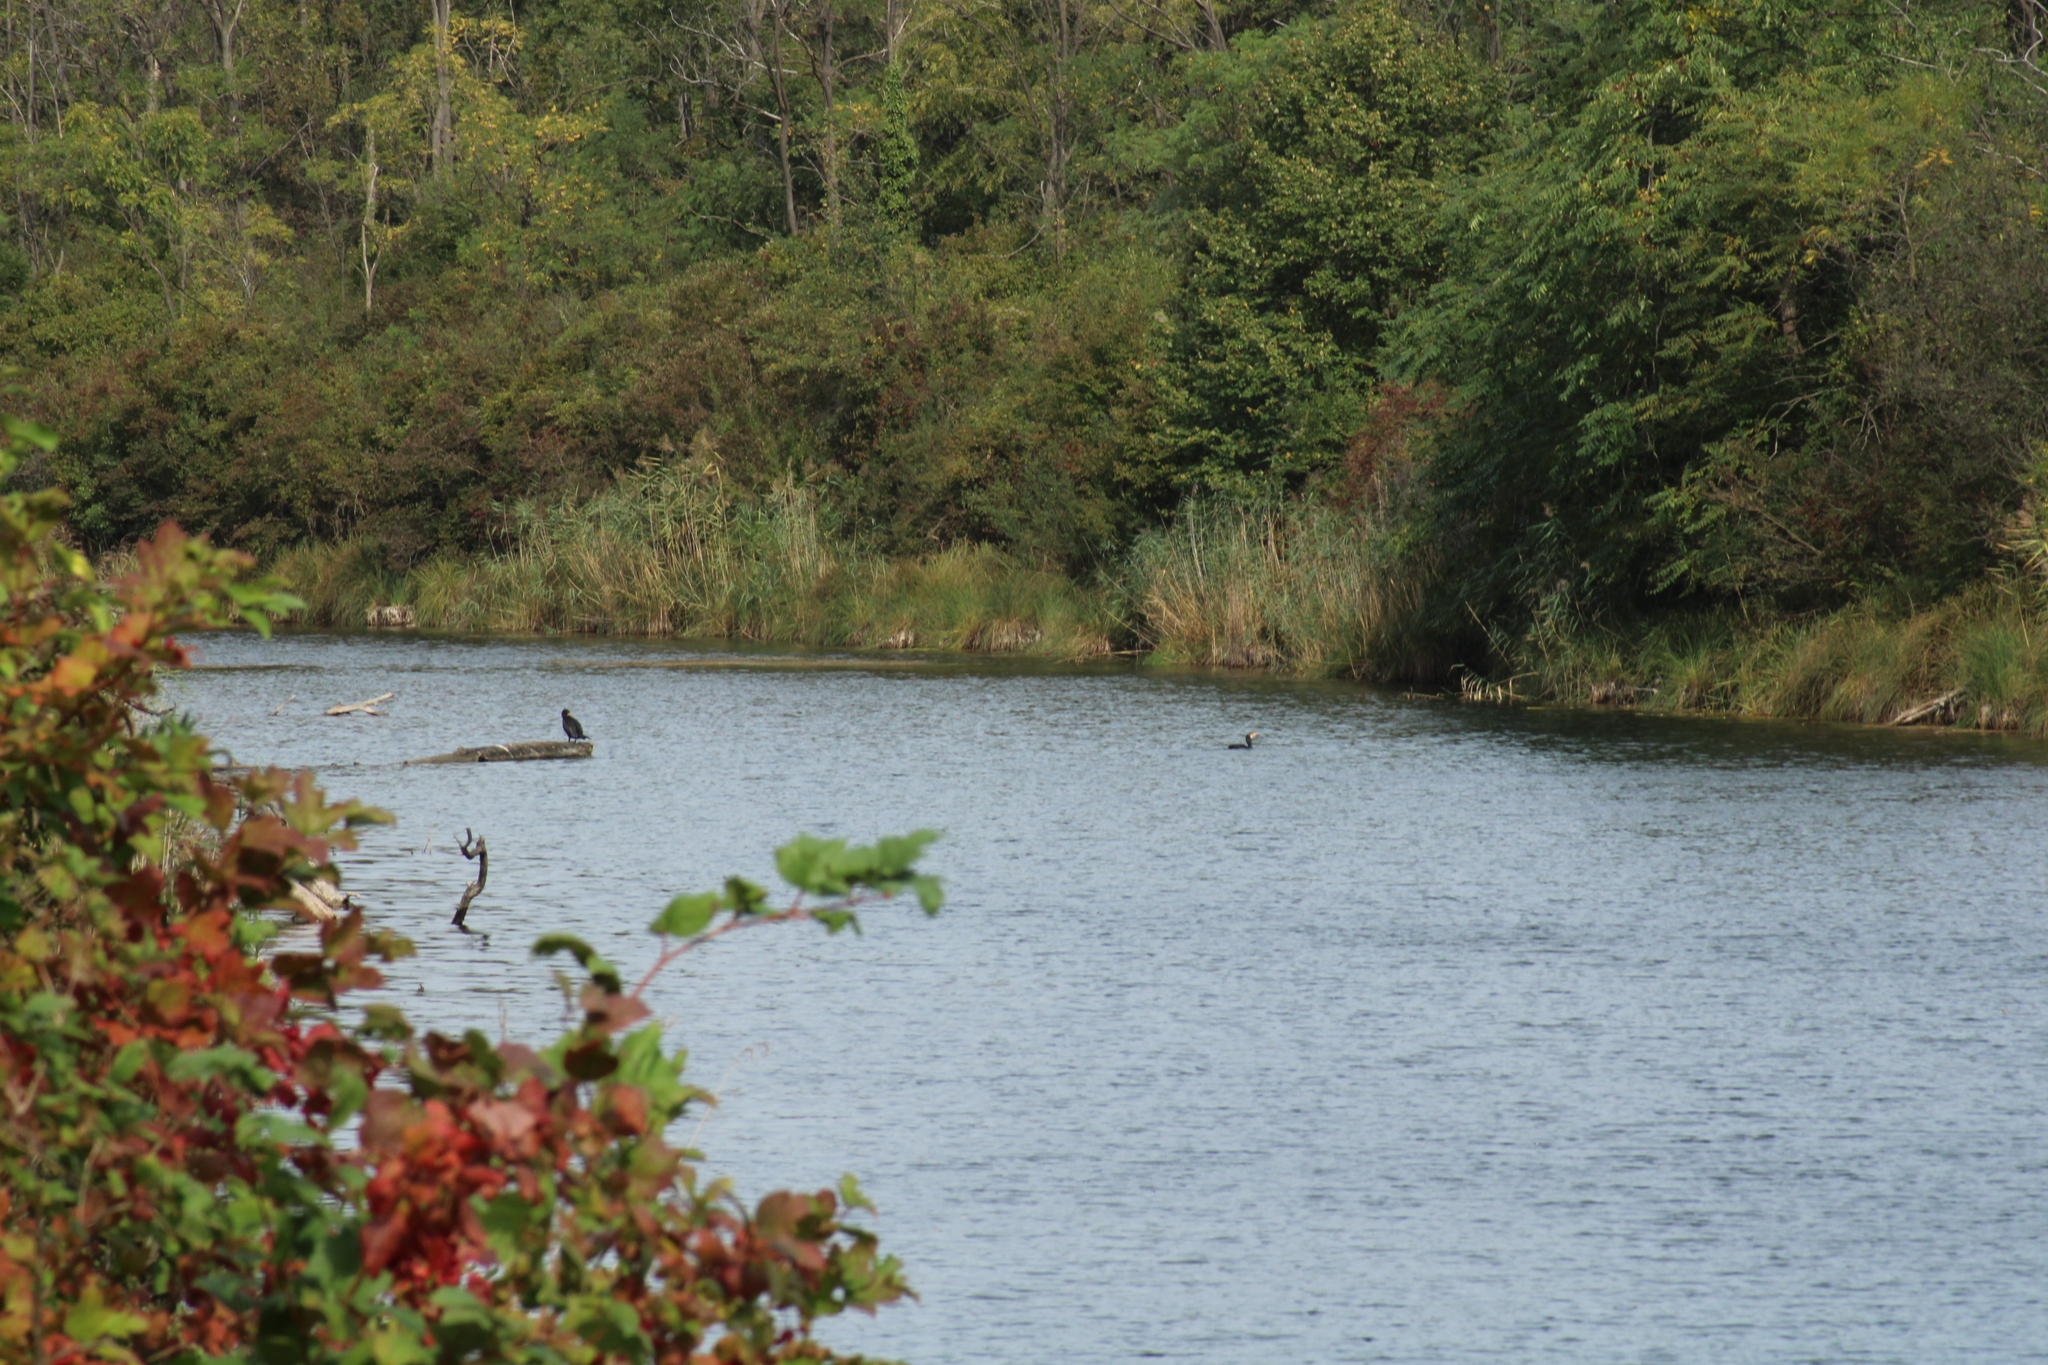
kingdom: Animalia
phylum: Chordata
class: Aves
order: Suliformes
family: Phalacrocoracidae
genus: Phalacrocorax
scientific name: Phalacrocorax carbo
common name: Great cormorant
